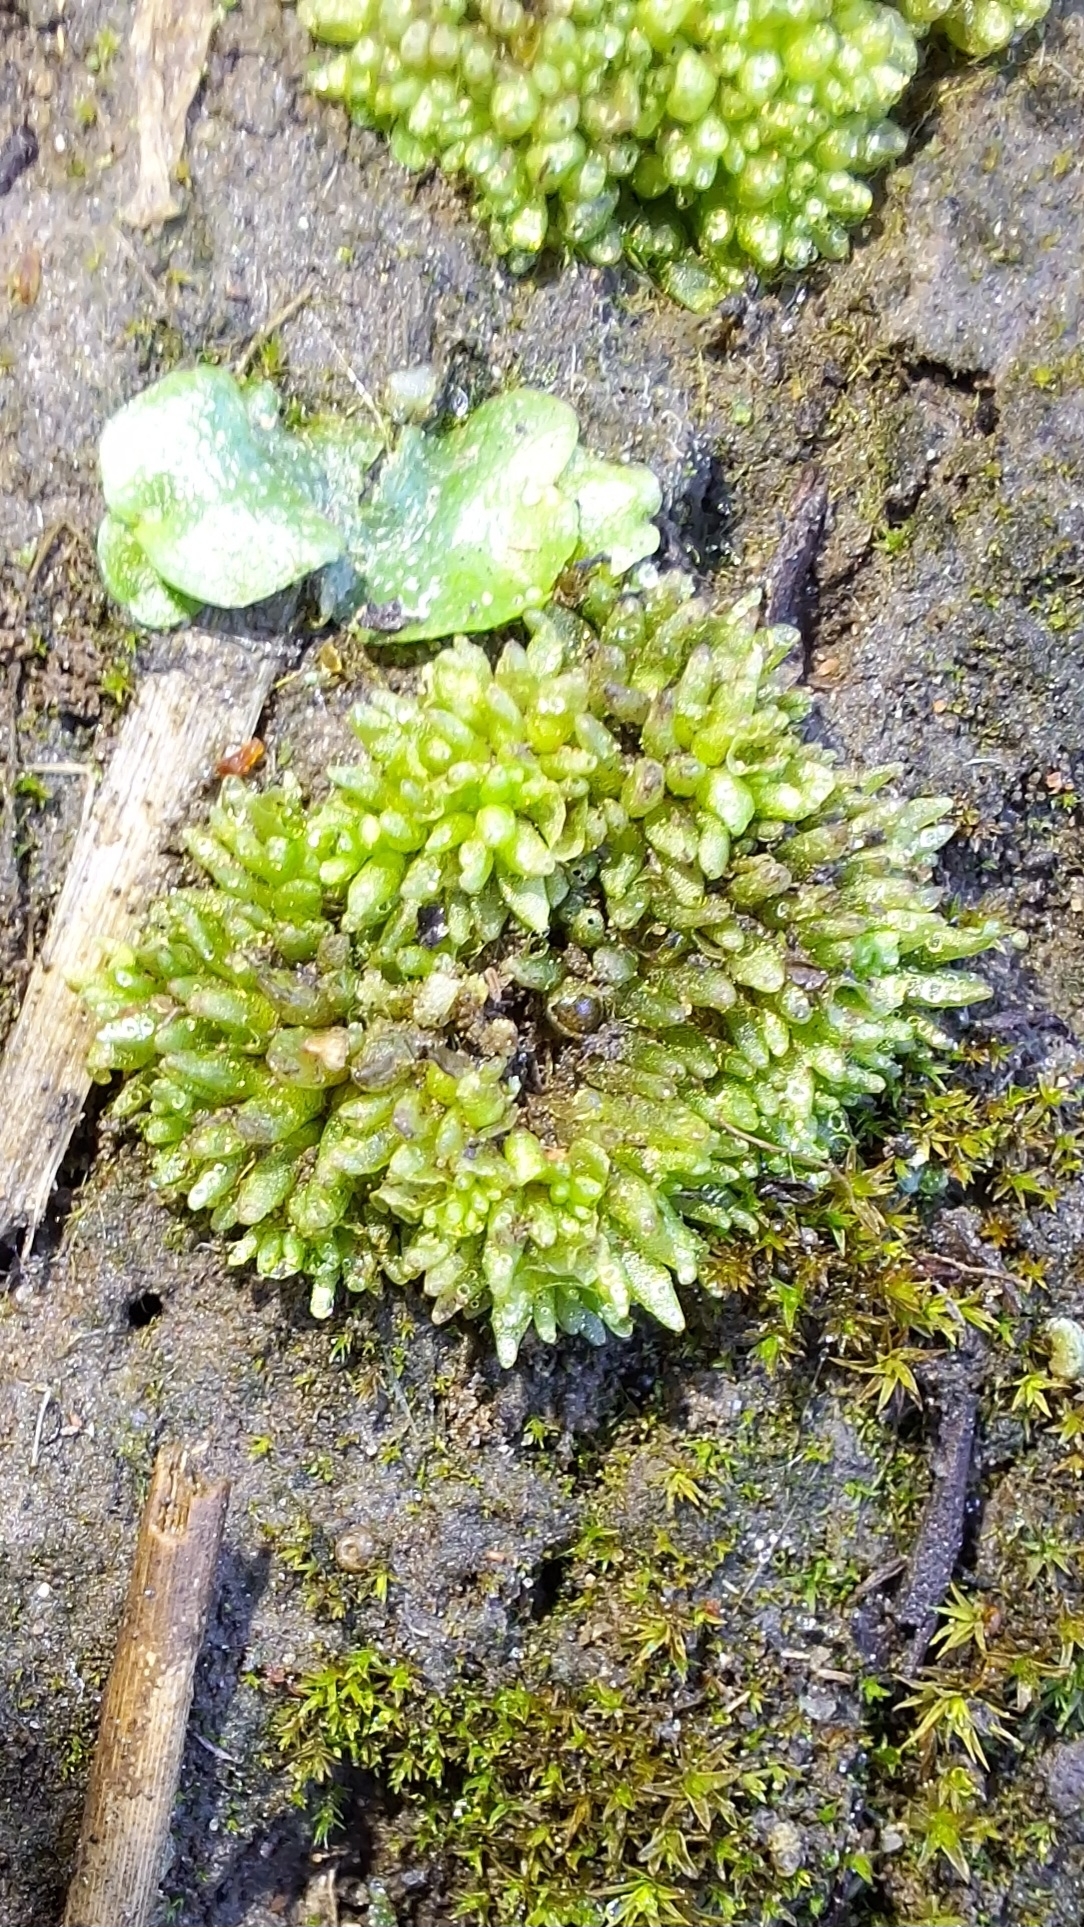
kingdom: Plantae
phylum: Marchantiophyta
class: Marchantiopsida
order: Sphaerocarpales
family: Sphaerocarpaceae
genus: Sphaerocarpos
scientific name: Sphaerocarpos texanus
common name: Texas balloonwort
